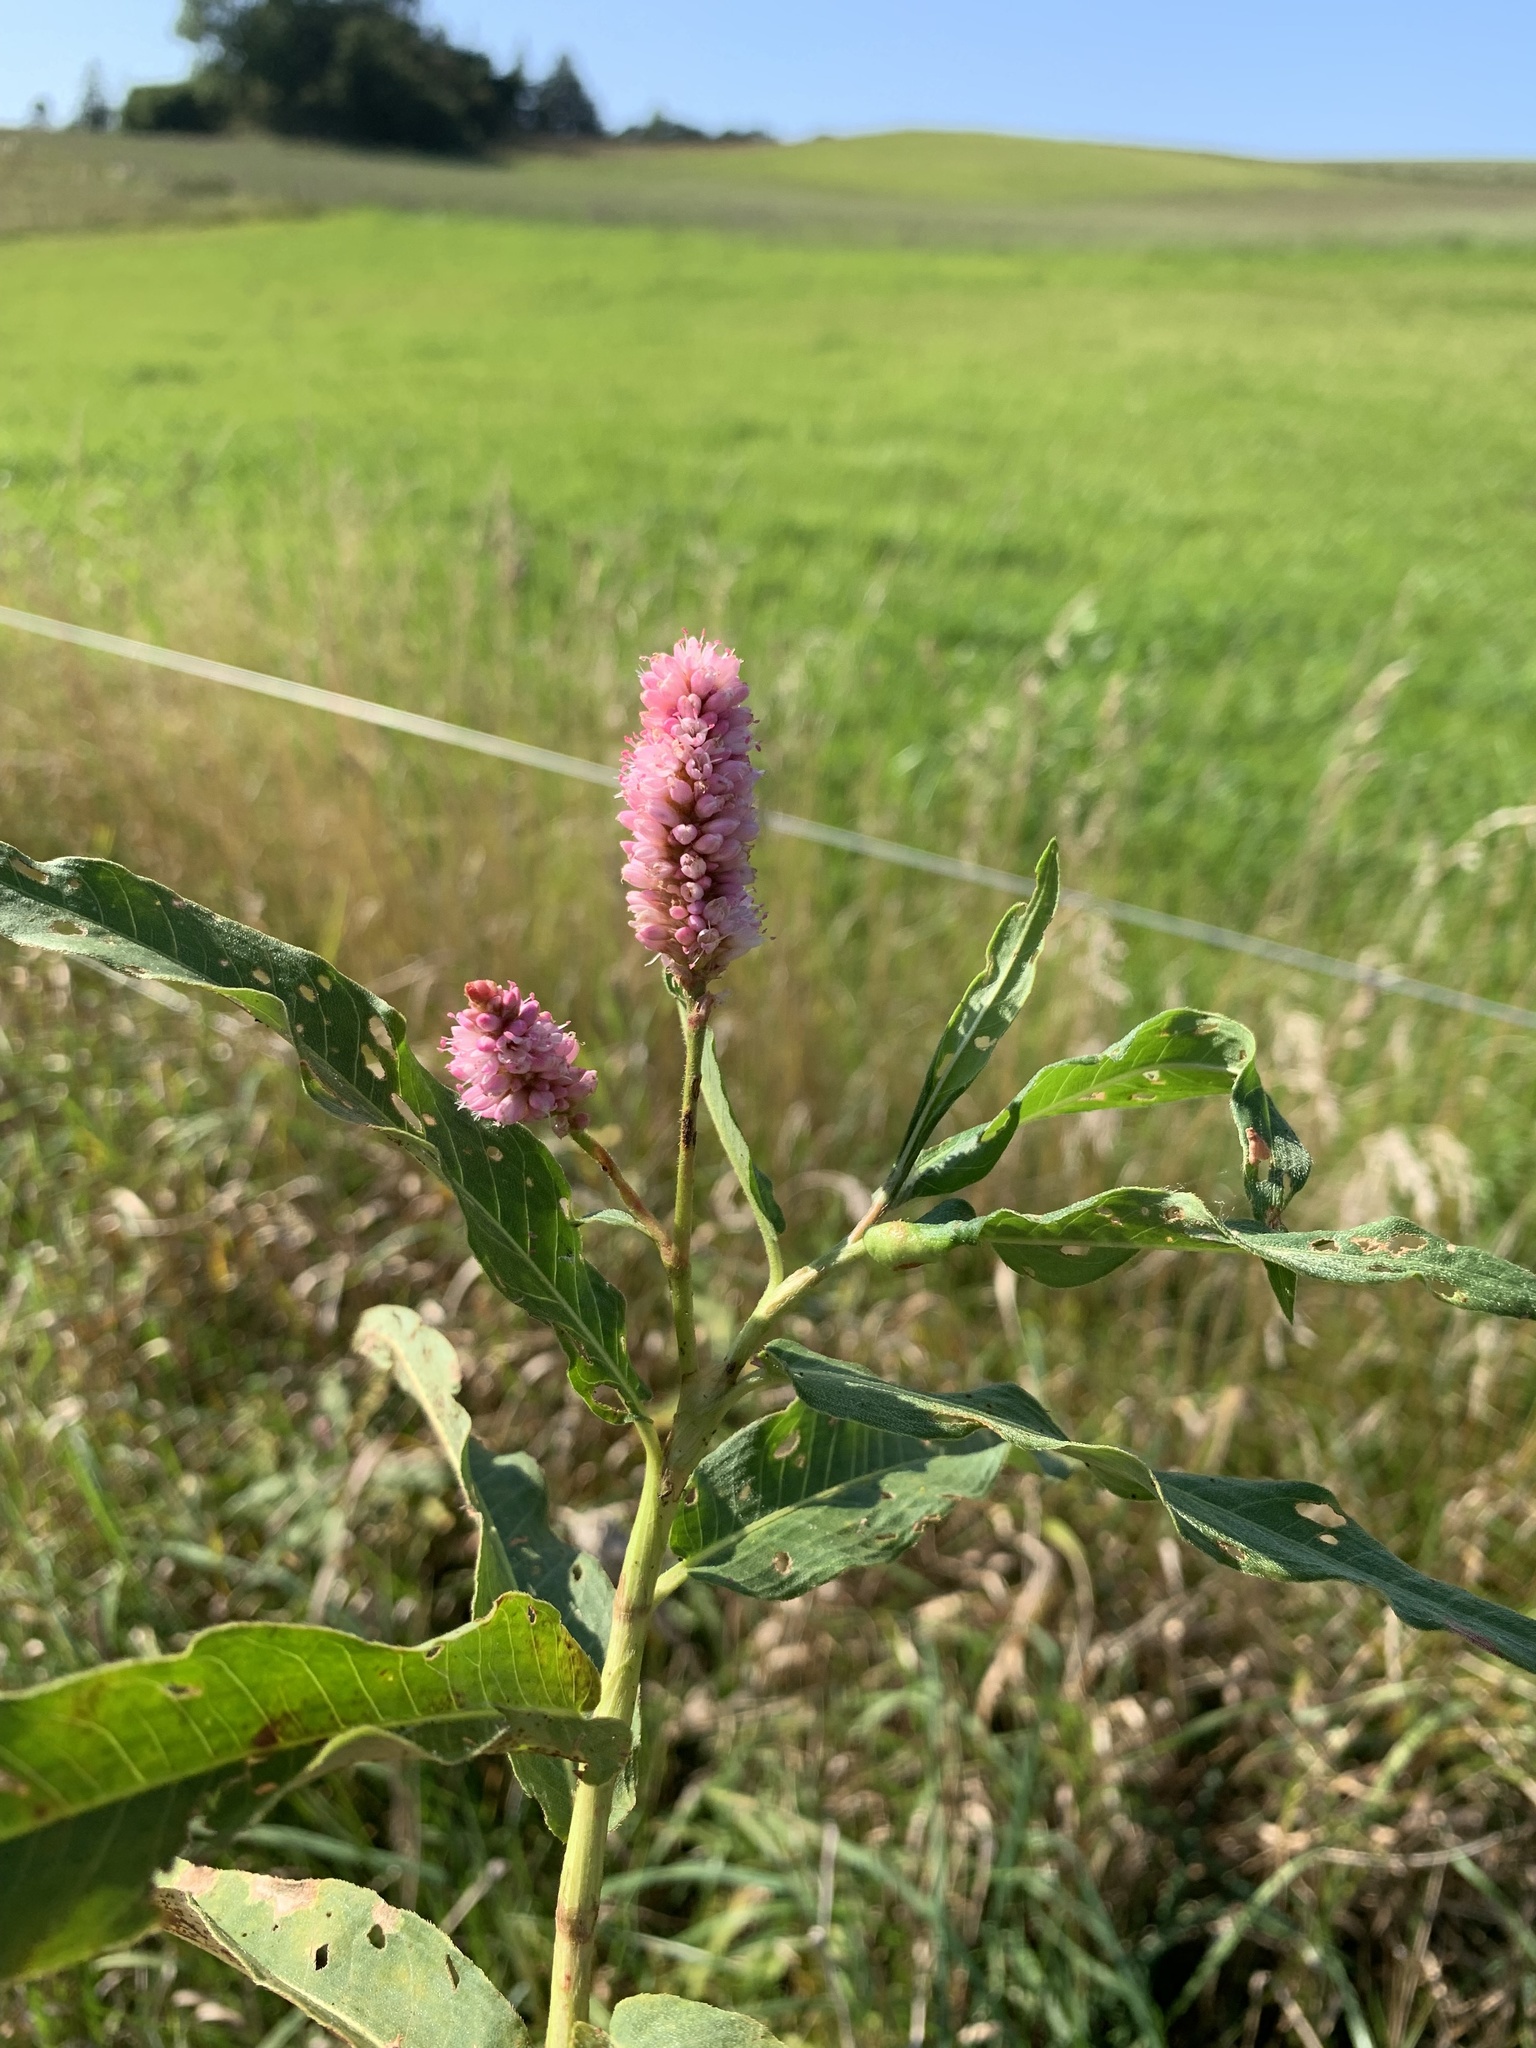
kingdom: Plantae
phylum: Tracheophyta
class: Magnoliopsida
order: Caryophyllales
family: Polygonaceae
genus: Persicaria
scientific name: Persicaria amphibia
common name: Amphibious bistort
